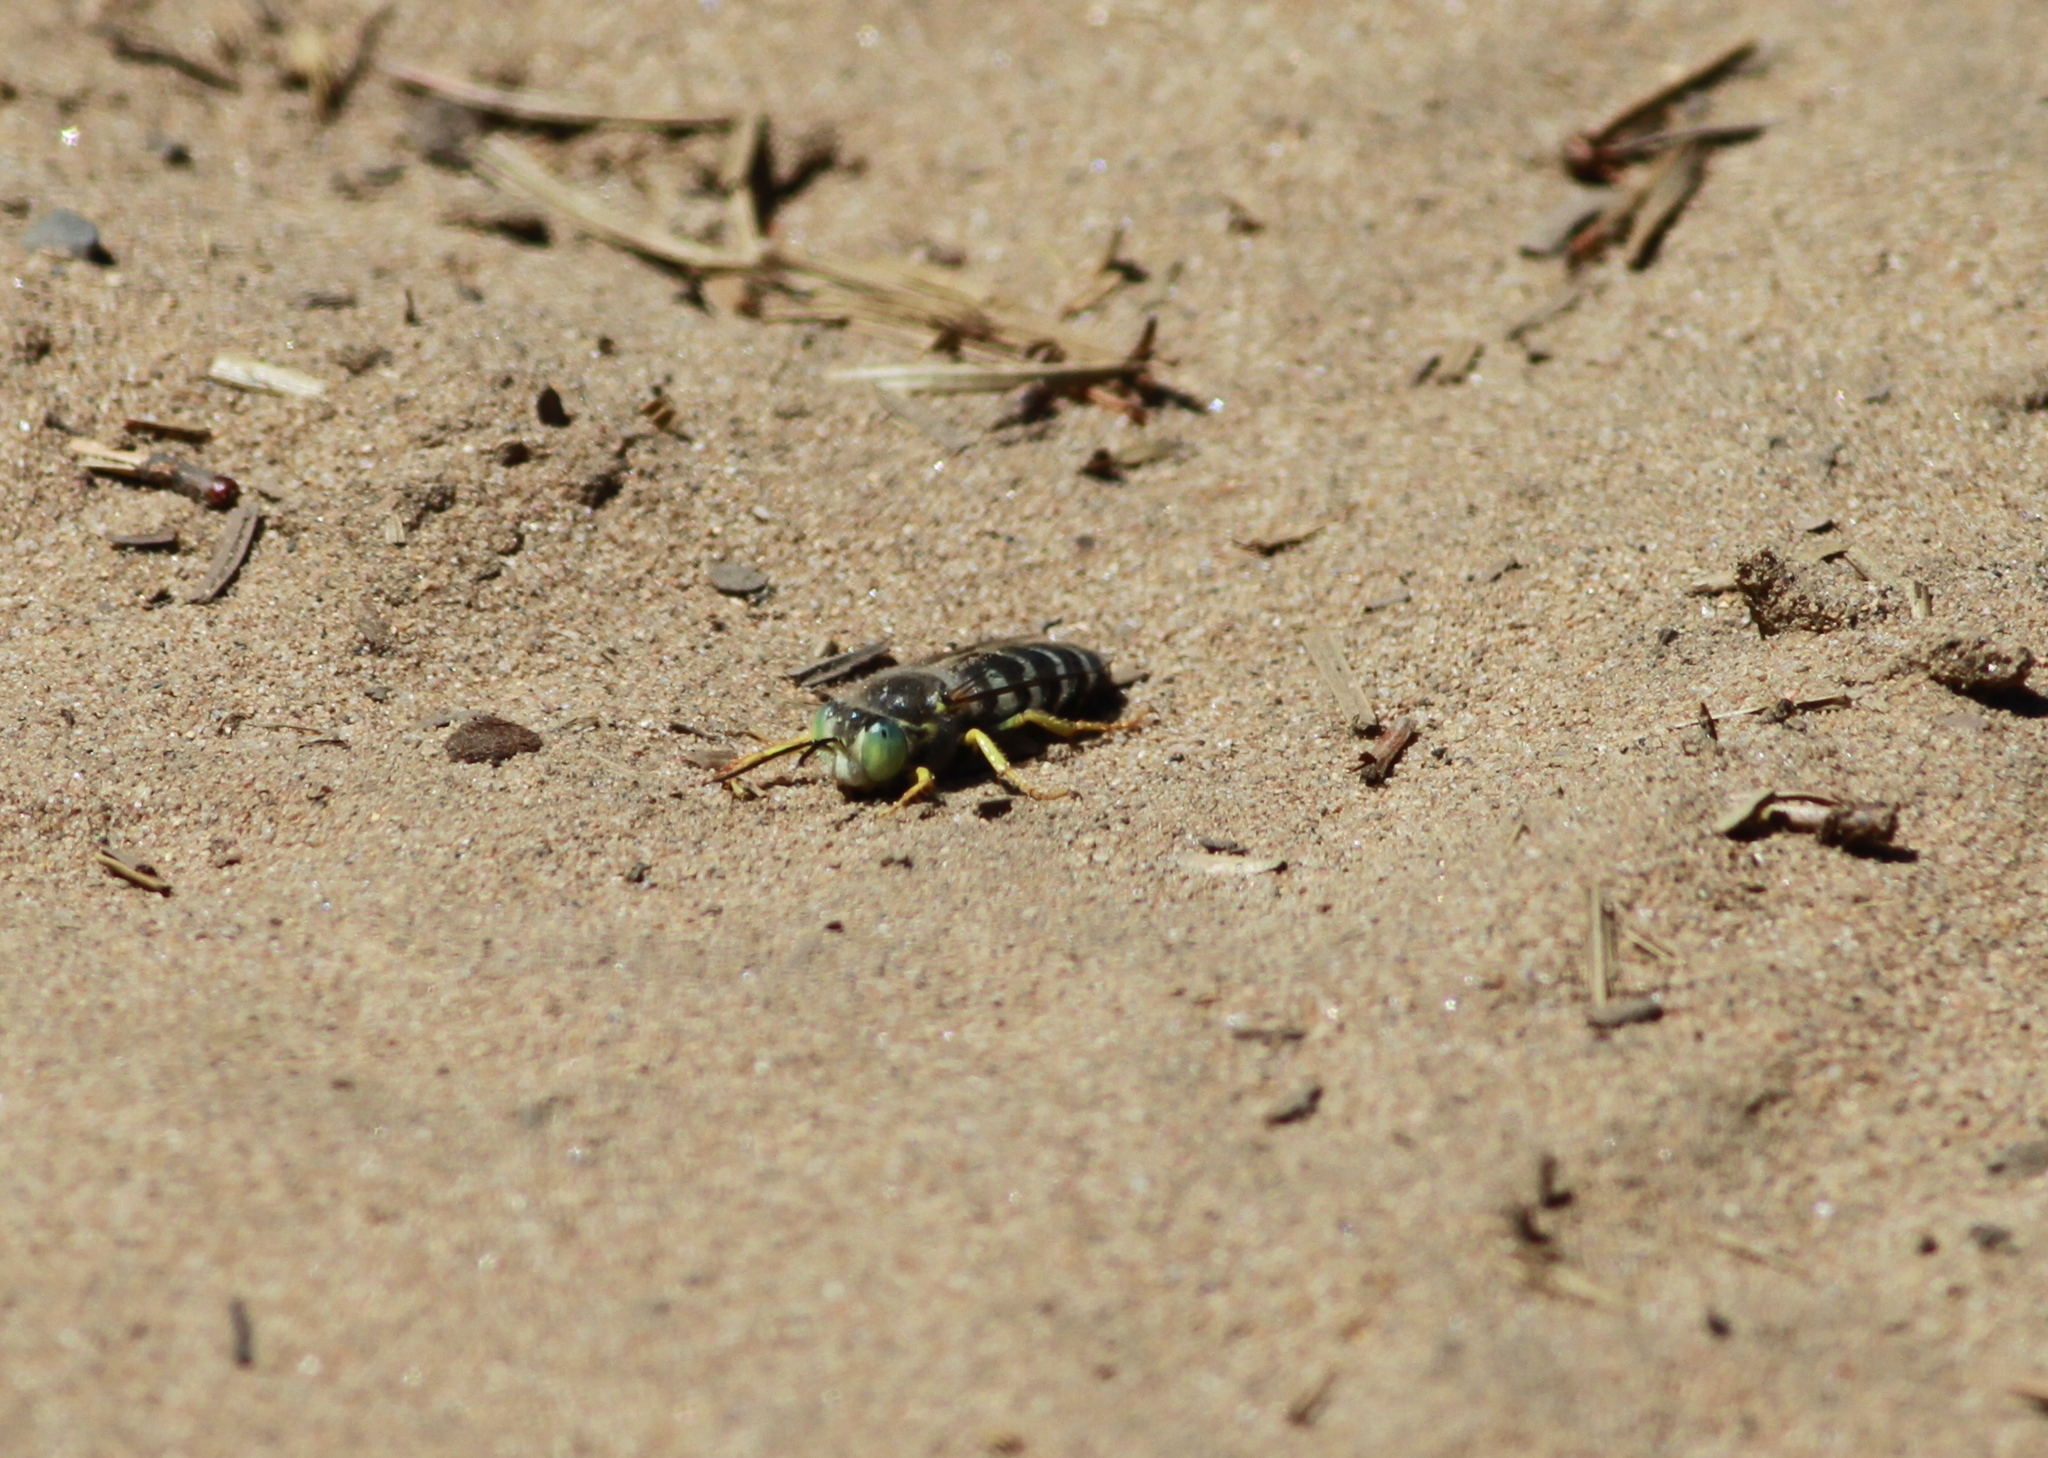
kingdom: Animalia
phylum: Arthropoda
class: Insecta
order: Hymenoptera
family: Crabronidae
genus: Bembix
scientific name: Bembix americana
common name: American sand wasp
